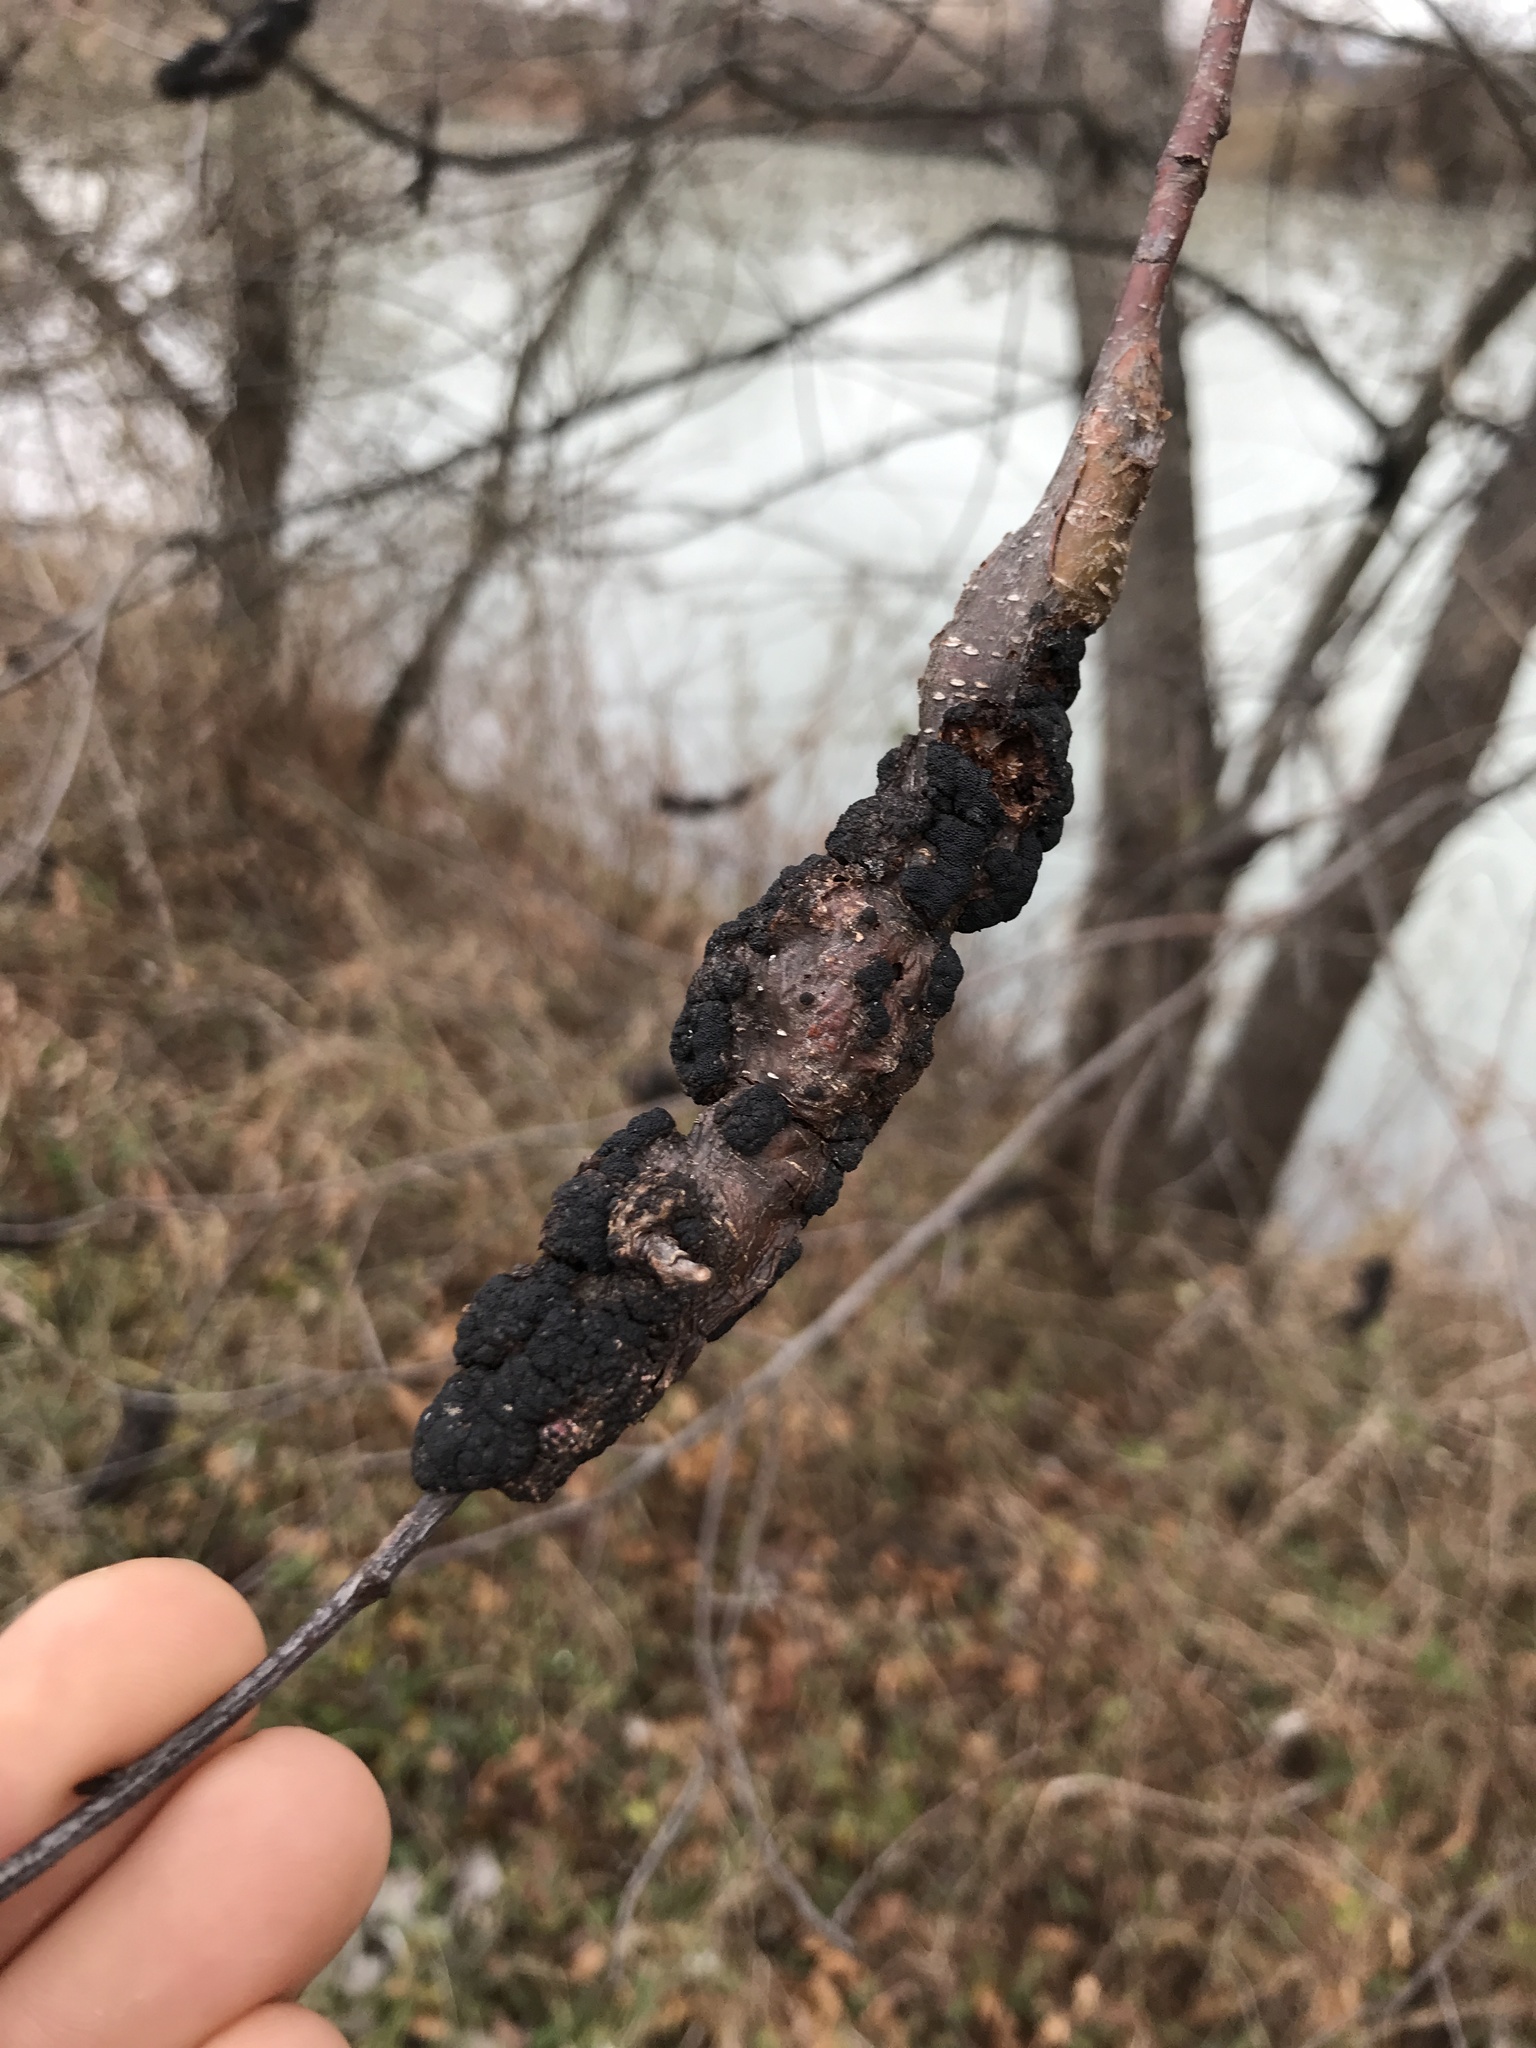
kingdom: Fungi
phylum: Ascomycota
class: Dothideomycetes
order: Venturiales
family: Venturiaceae
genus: Apiosporina
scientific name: Apiosporina morbosa
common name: Black knot
